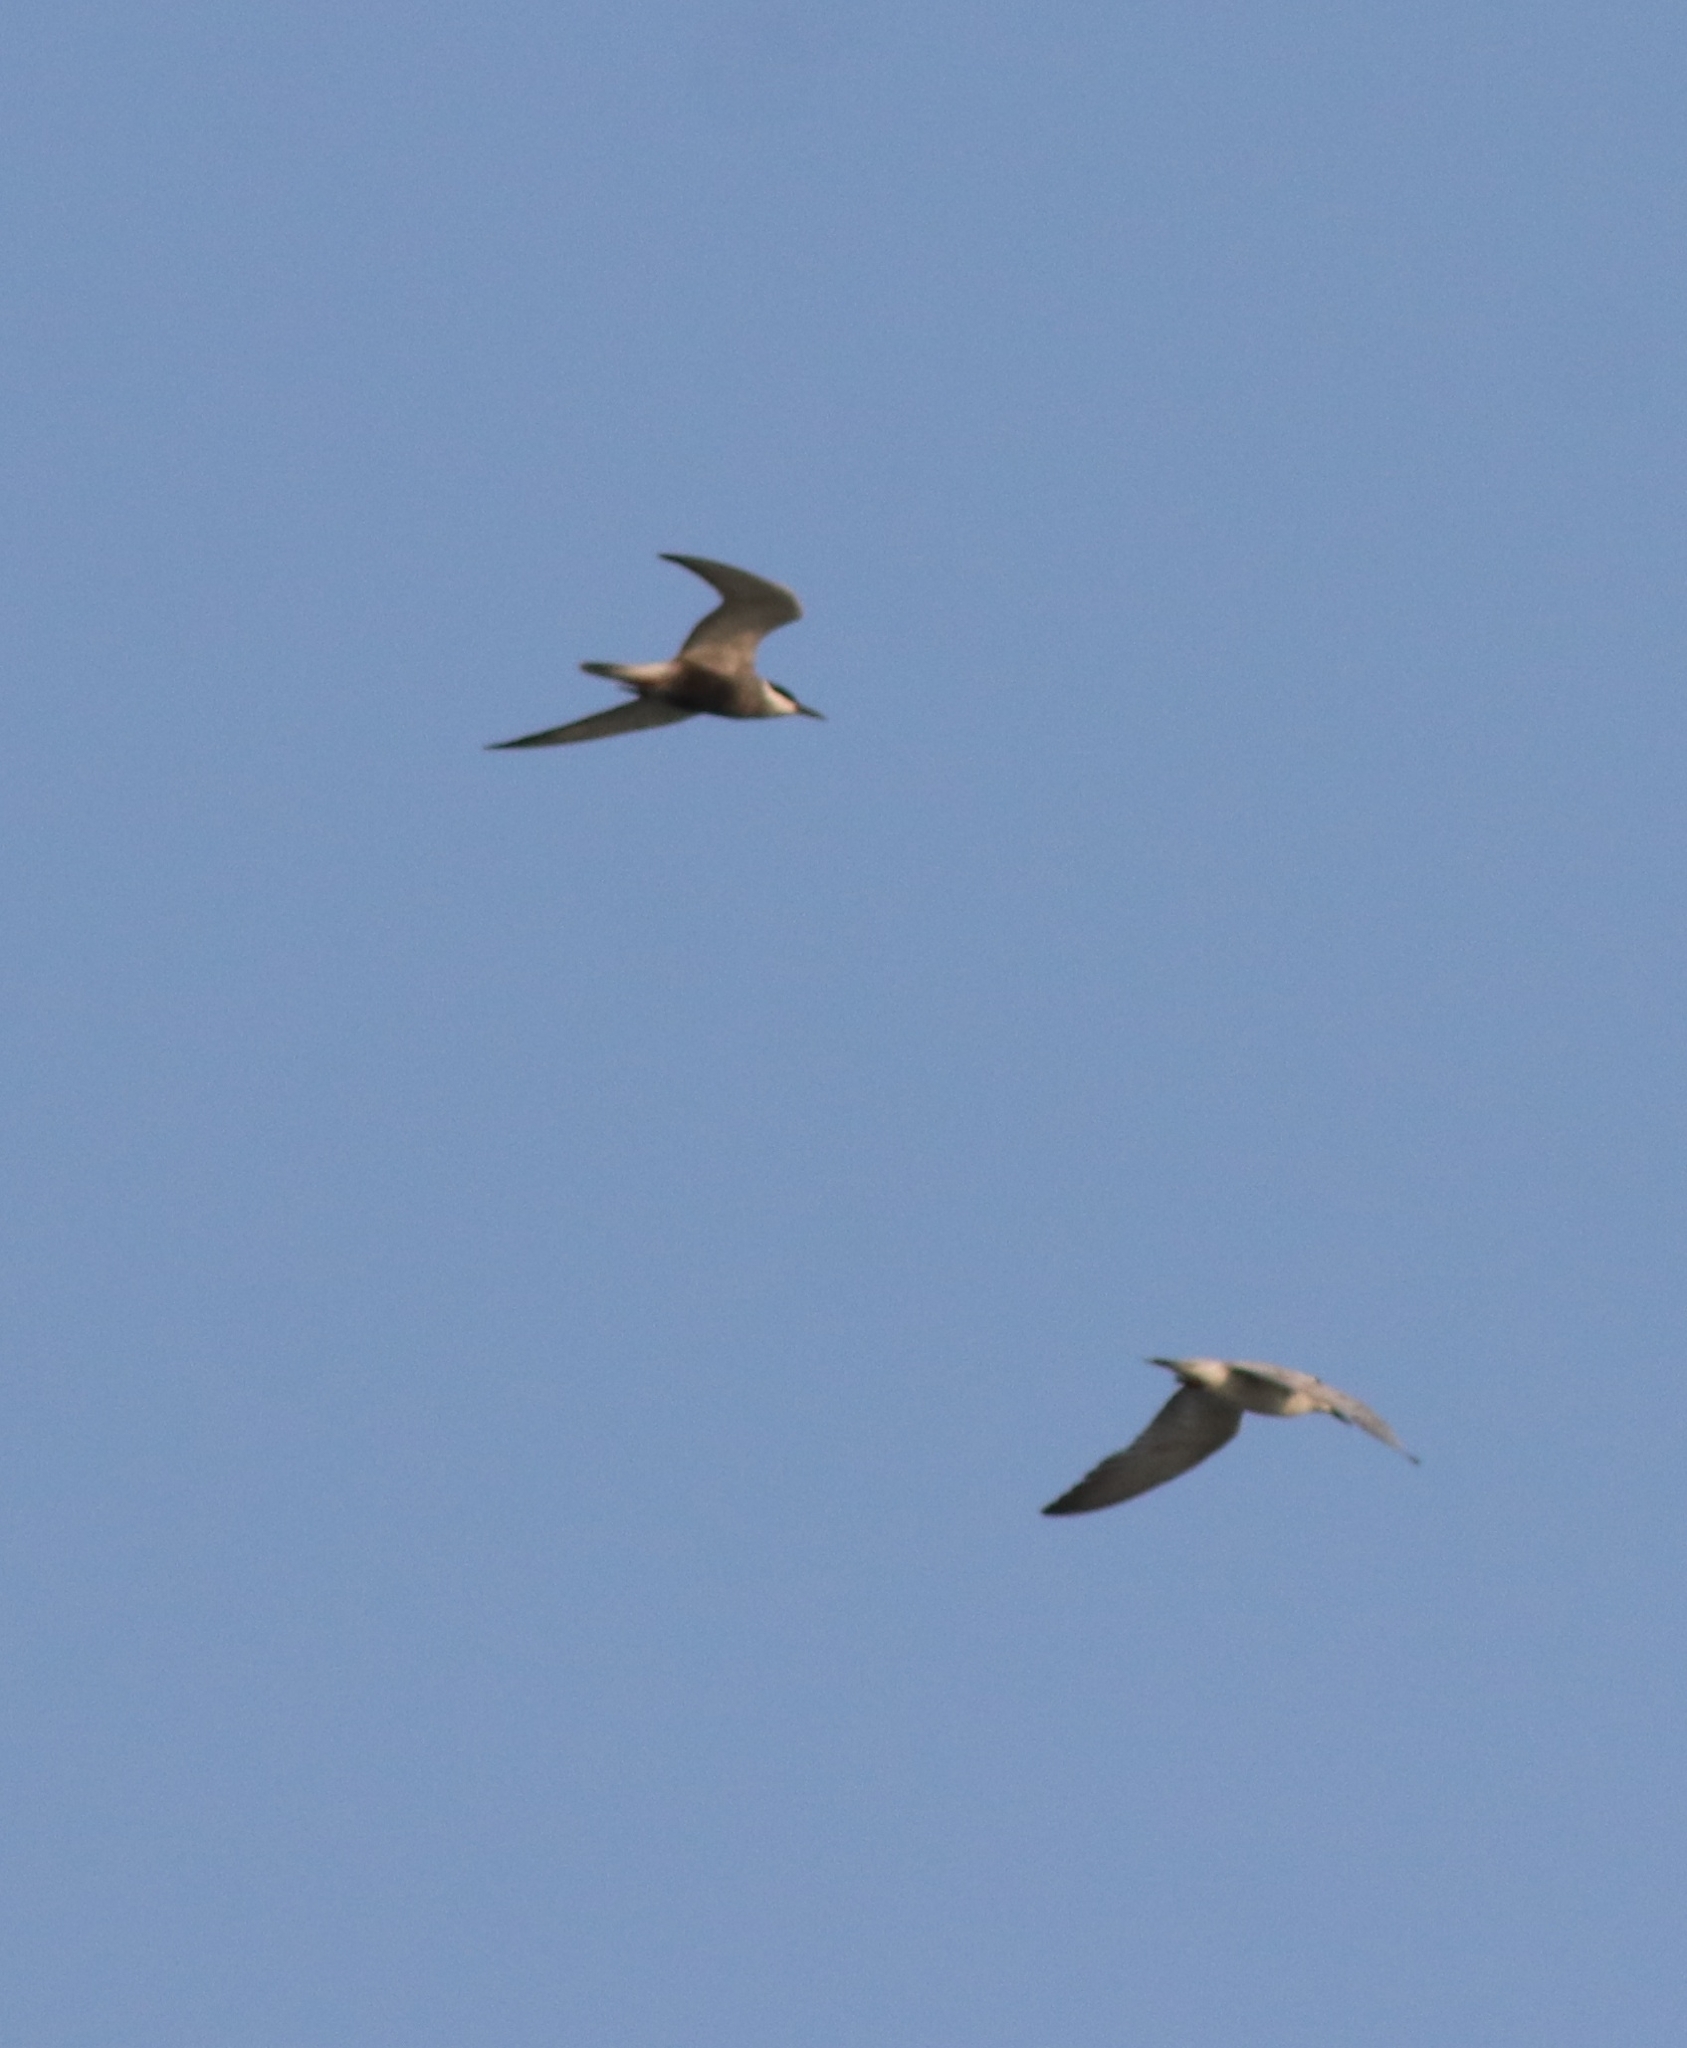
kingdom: Animalia
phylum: Chordata
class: Aves
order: Charadriiformes
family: Laridae
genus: Chlidonias
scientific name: Chlidonias hybrida
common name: Whiskered tern
